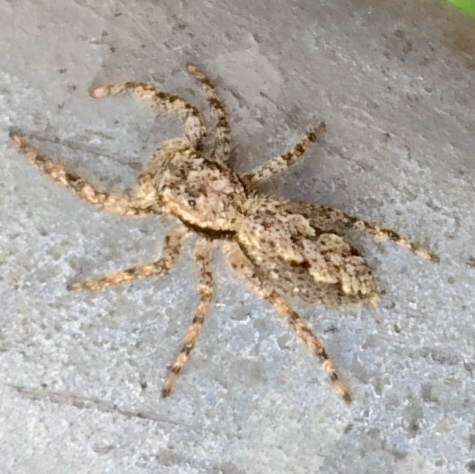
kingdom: Animalia
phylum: Arthropoda
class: Arachnida
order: Araneae
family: Salticidae
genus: Platycryptus
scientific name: Platycryptus undatus
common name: Tan jumping spider
